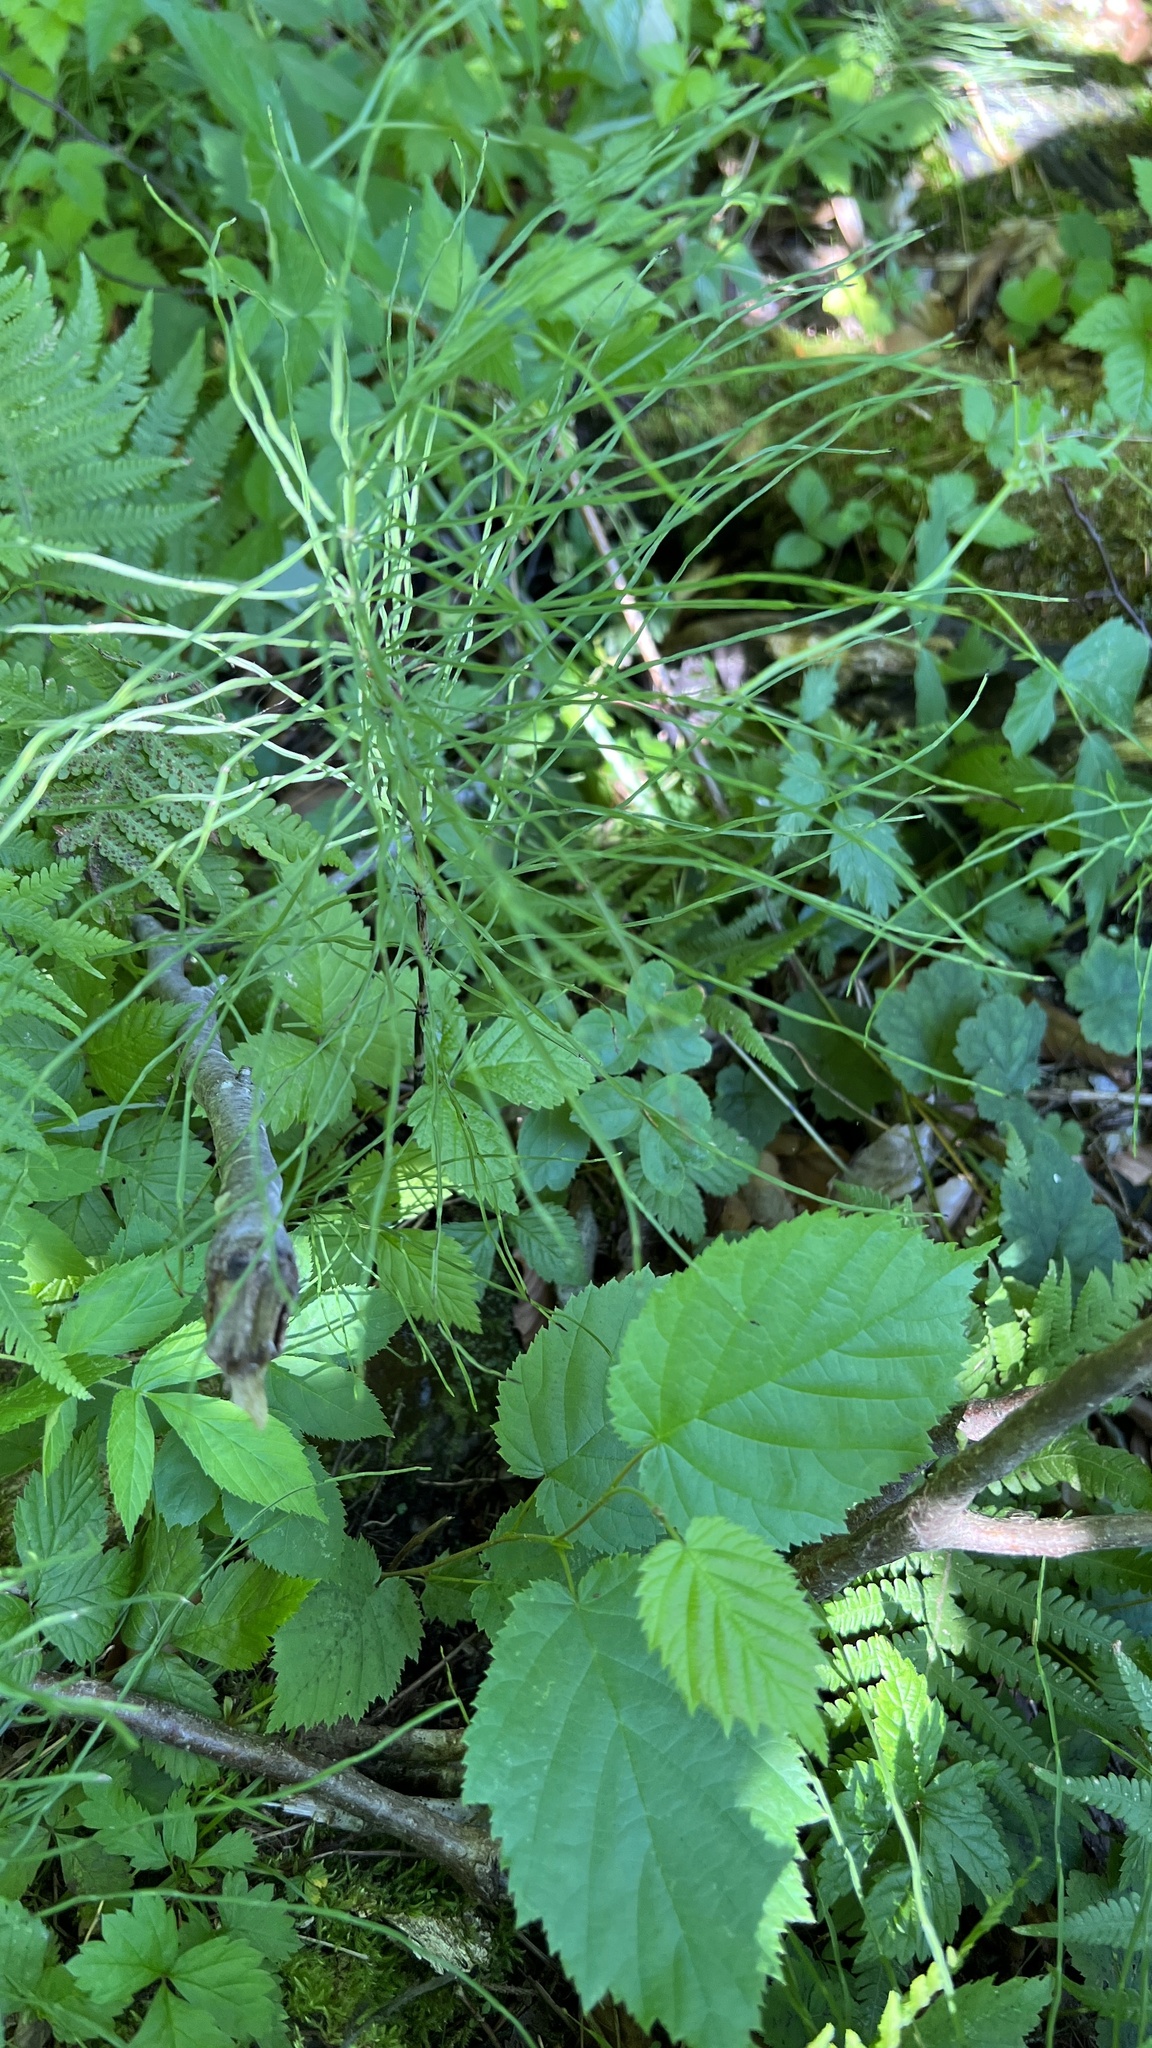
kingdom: Plantae
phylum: Tracheophyta
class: Polypodiopsida
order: Equisetales
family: Equisetaceae
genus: Equisetum
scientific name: Equisetum arvense
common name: Field horsetail
